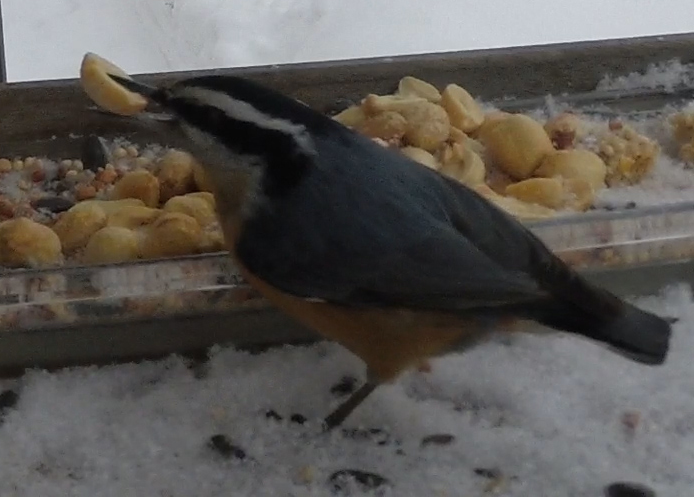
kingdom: Animalia
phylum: Chordata
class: Aves
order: Passeriformes
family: Sittidae
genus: Sitta
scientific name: Sitta canadensis
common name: Red-breasted nuthatch
